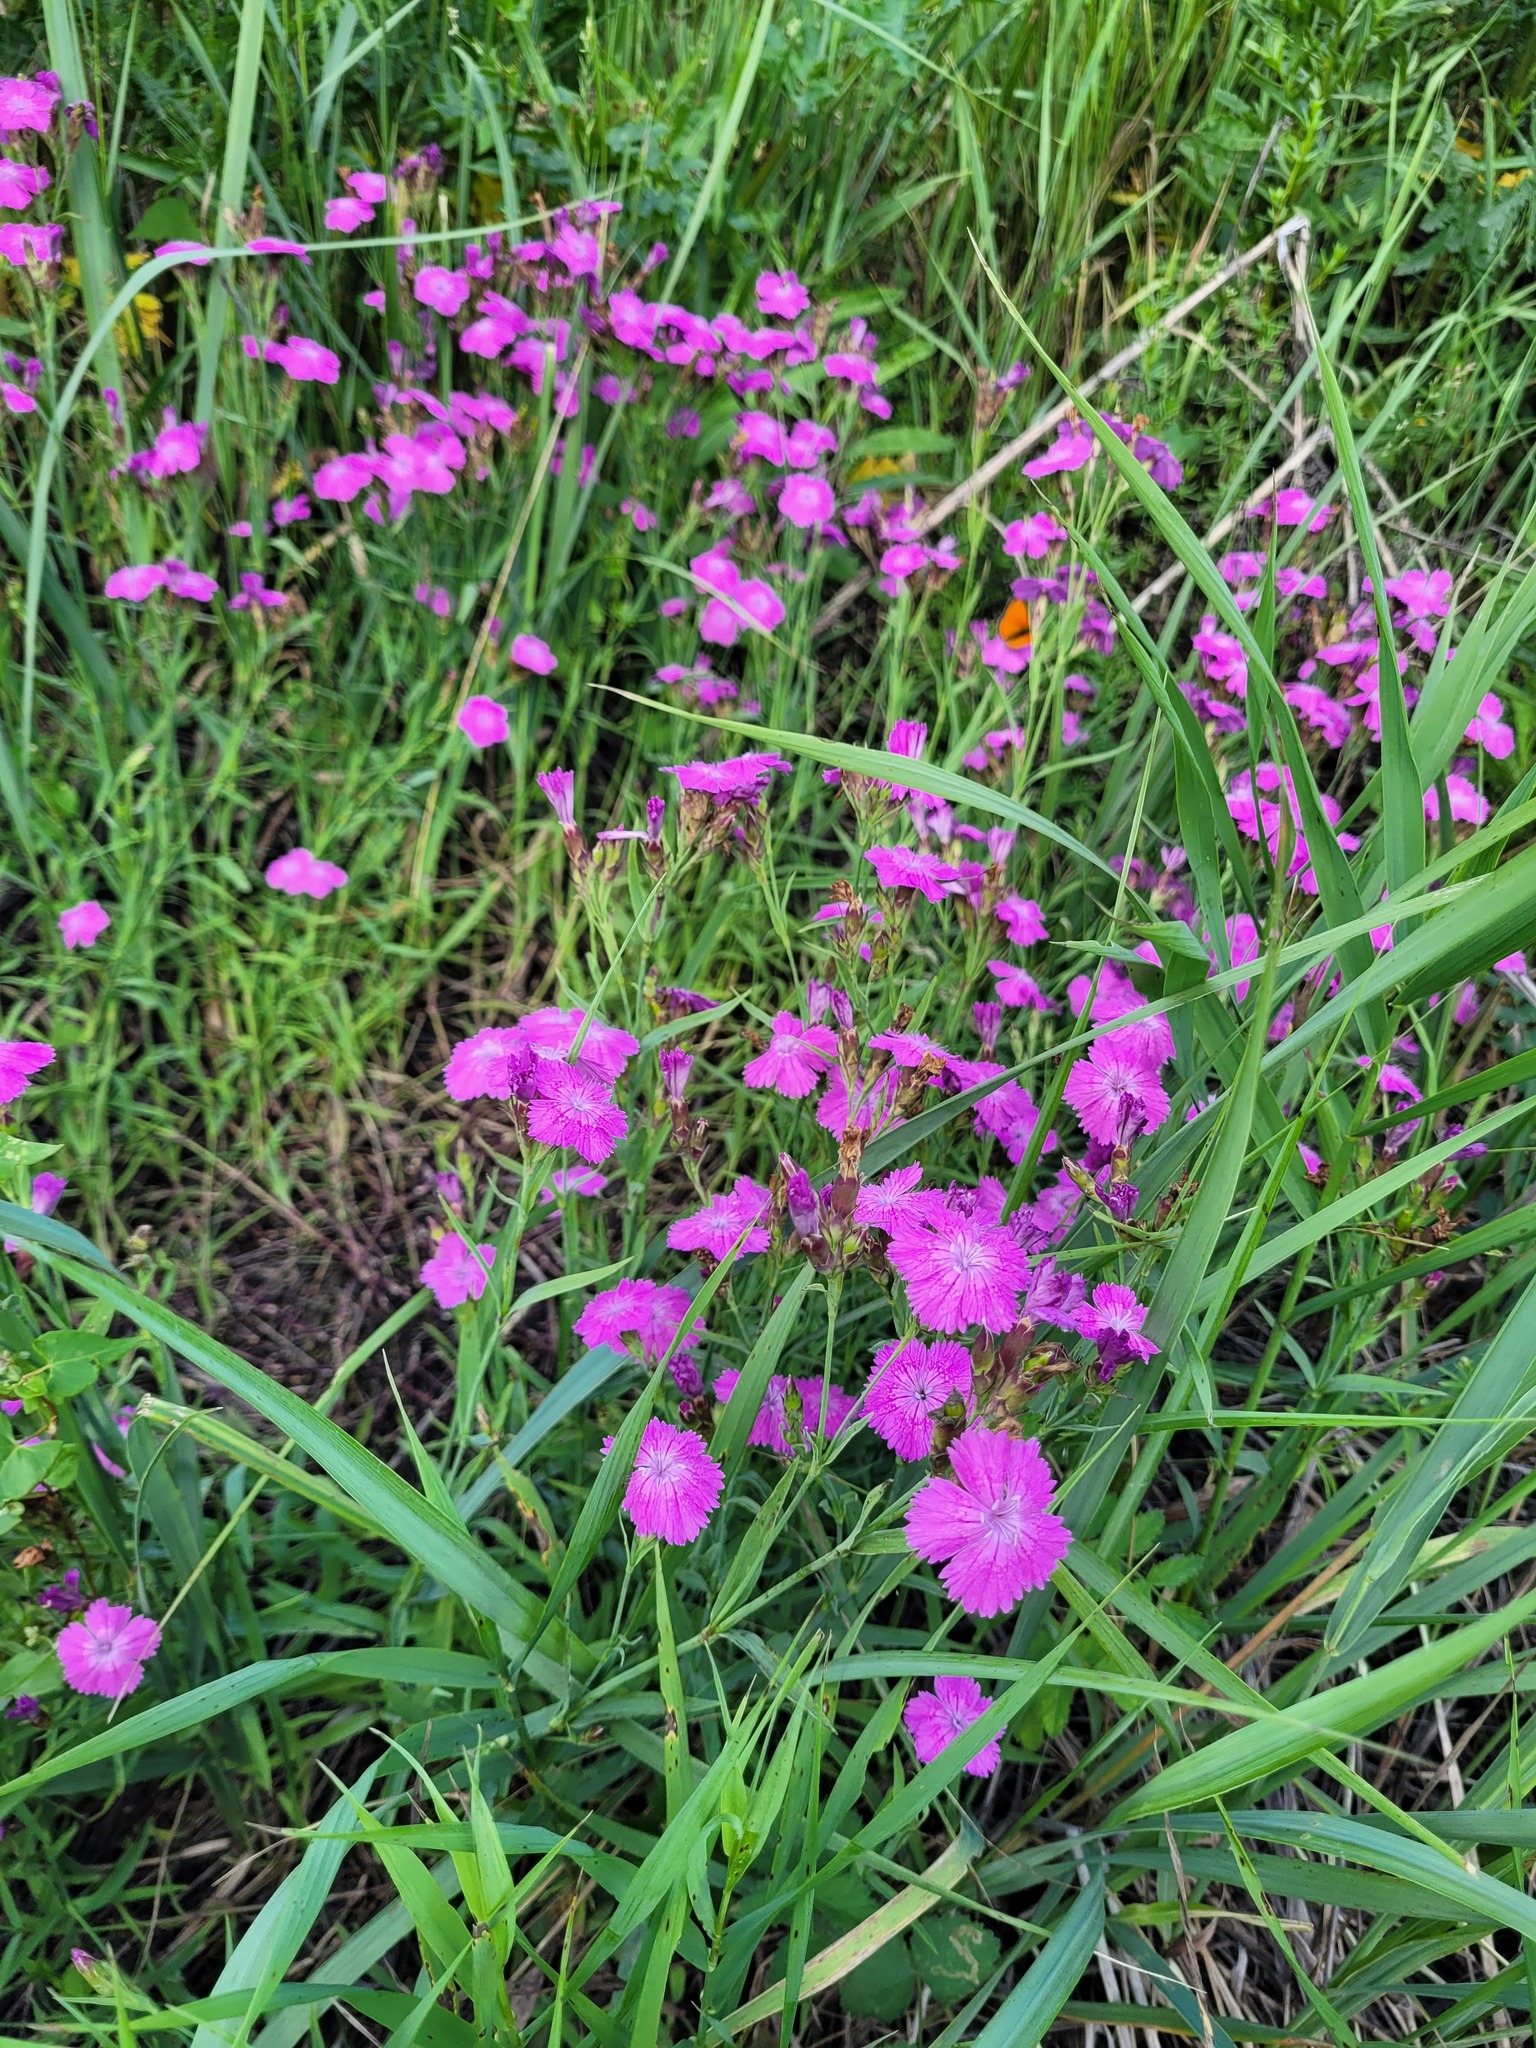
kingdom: Plantae
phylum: Tracheophyta
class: Magnoliopsida
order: Caryophyllales
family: Caryophyllaceae
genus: Dianthus
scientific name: Dianthus chinensis
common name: Rainbow pink
